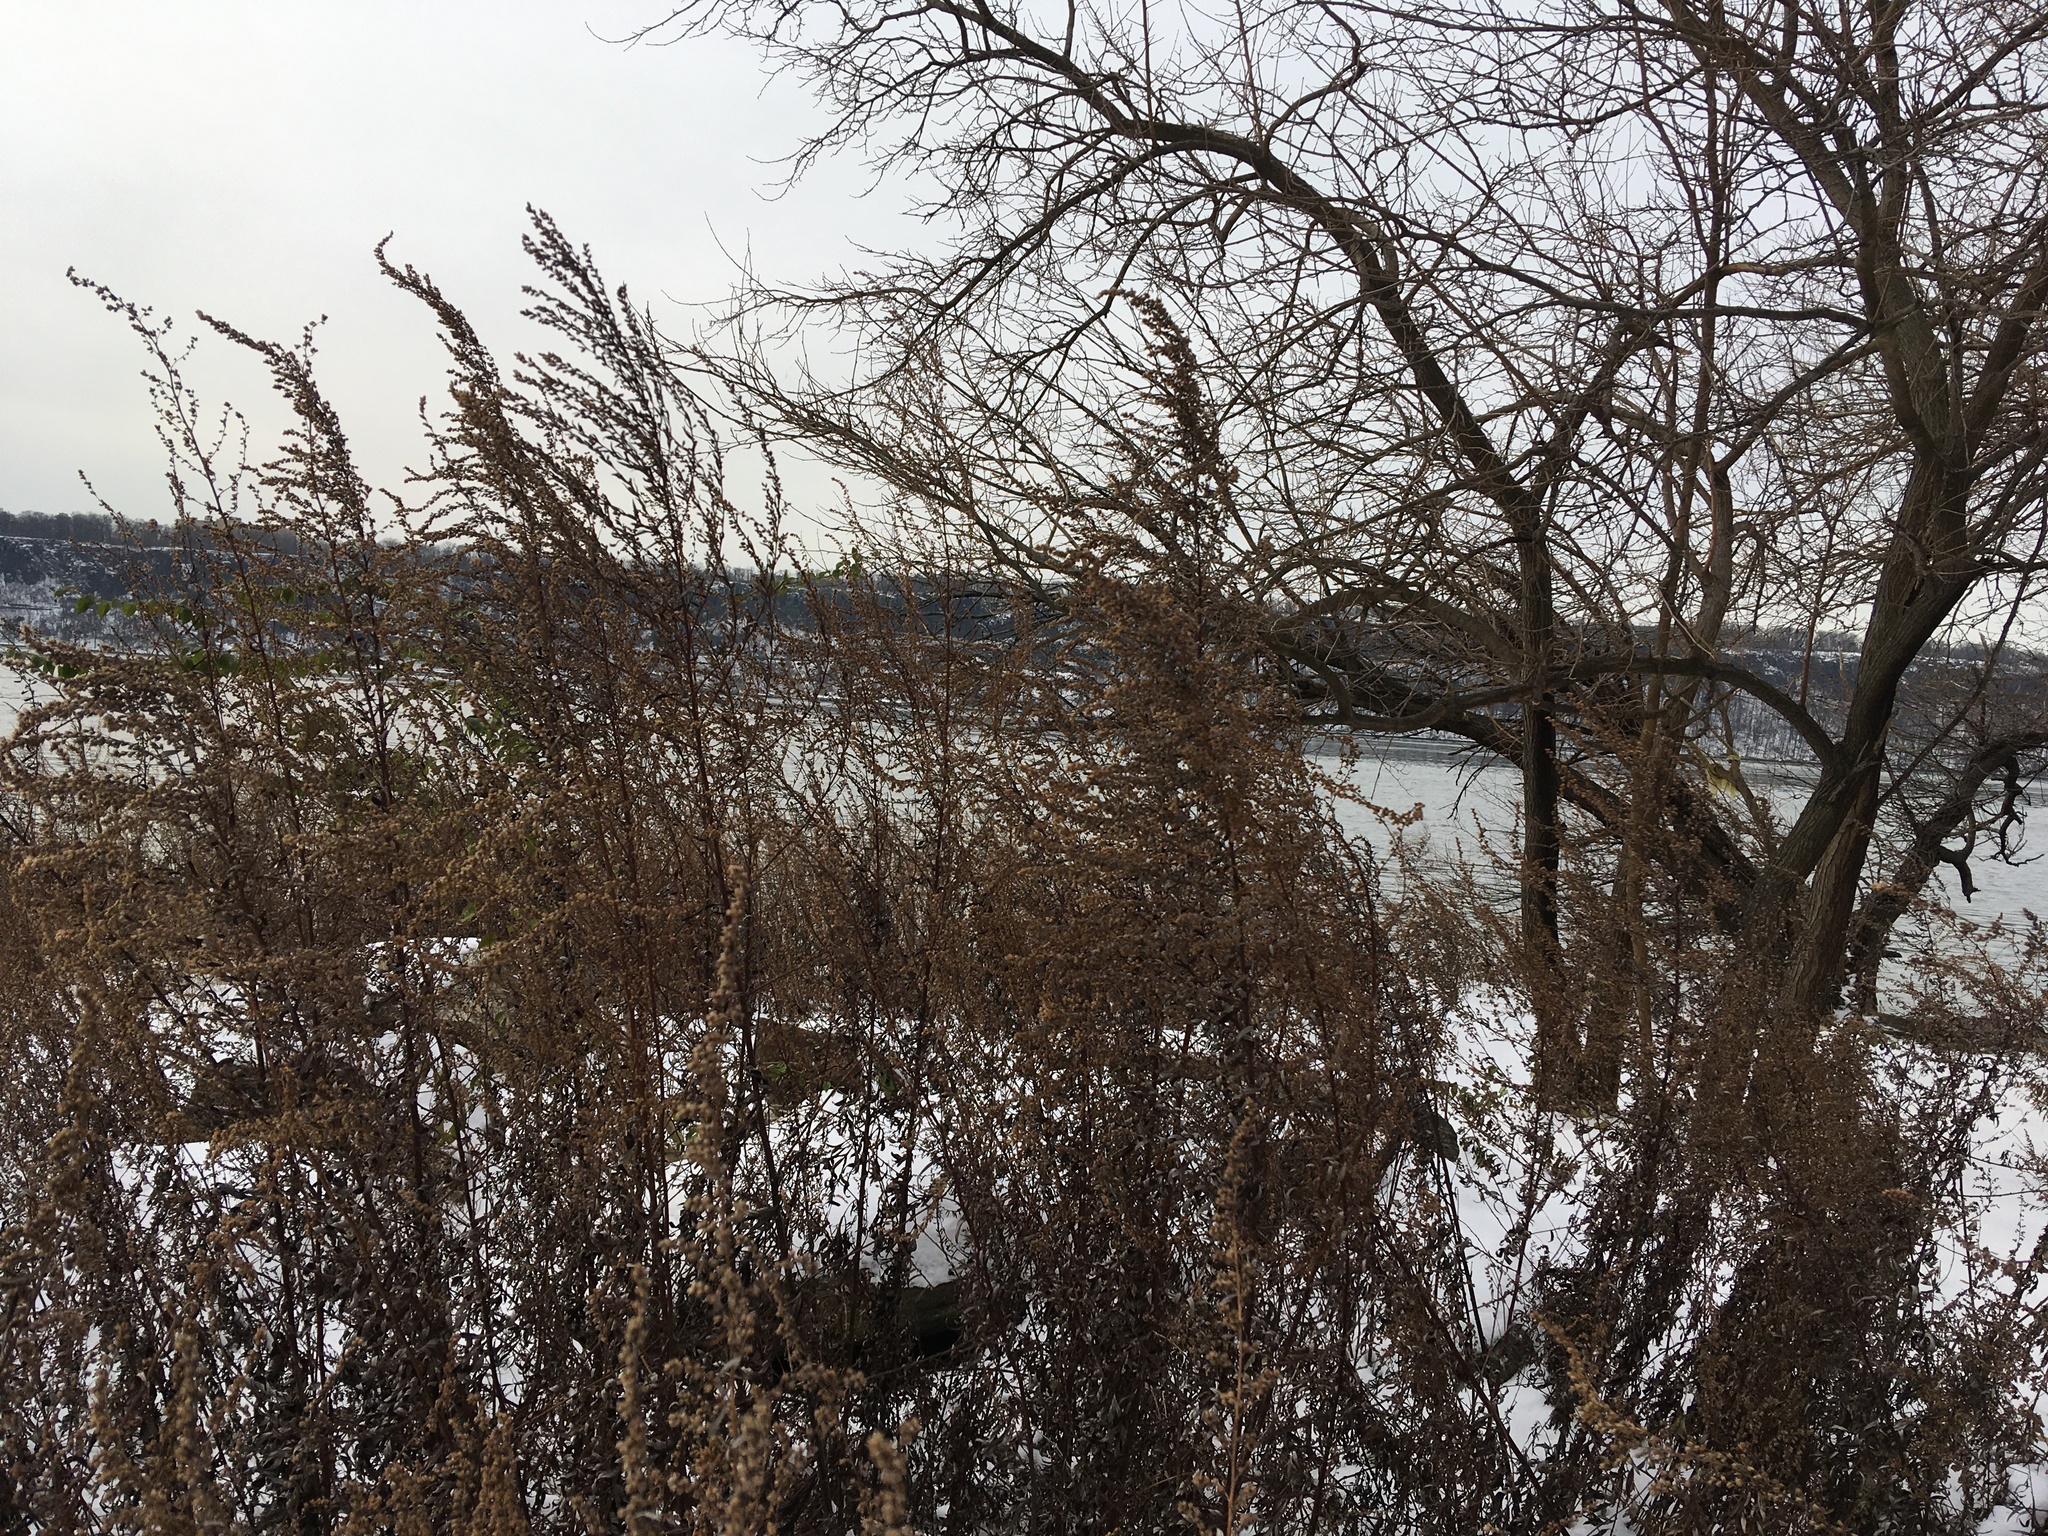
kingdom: Plantae
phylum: Tracheophyta
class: Magnoliopsida
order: Asterales
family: Asteraceae
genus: Artemisia
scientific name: Artemisia vulgaris
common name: Mugwort
